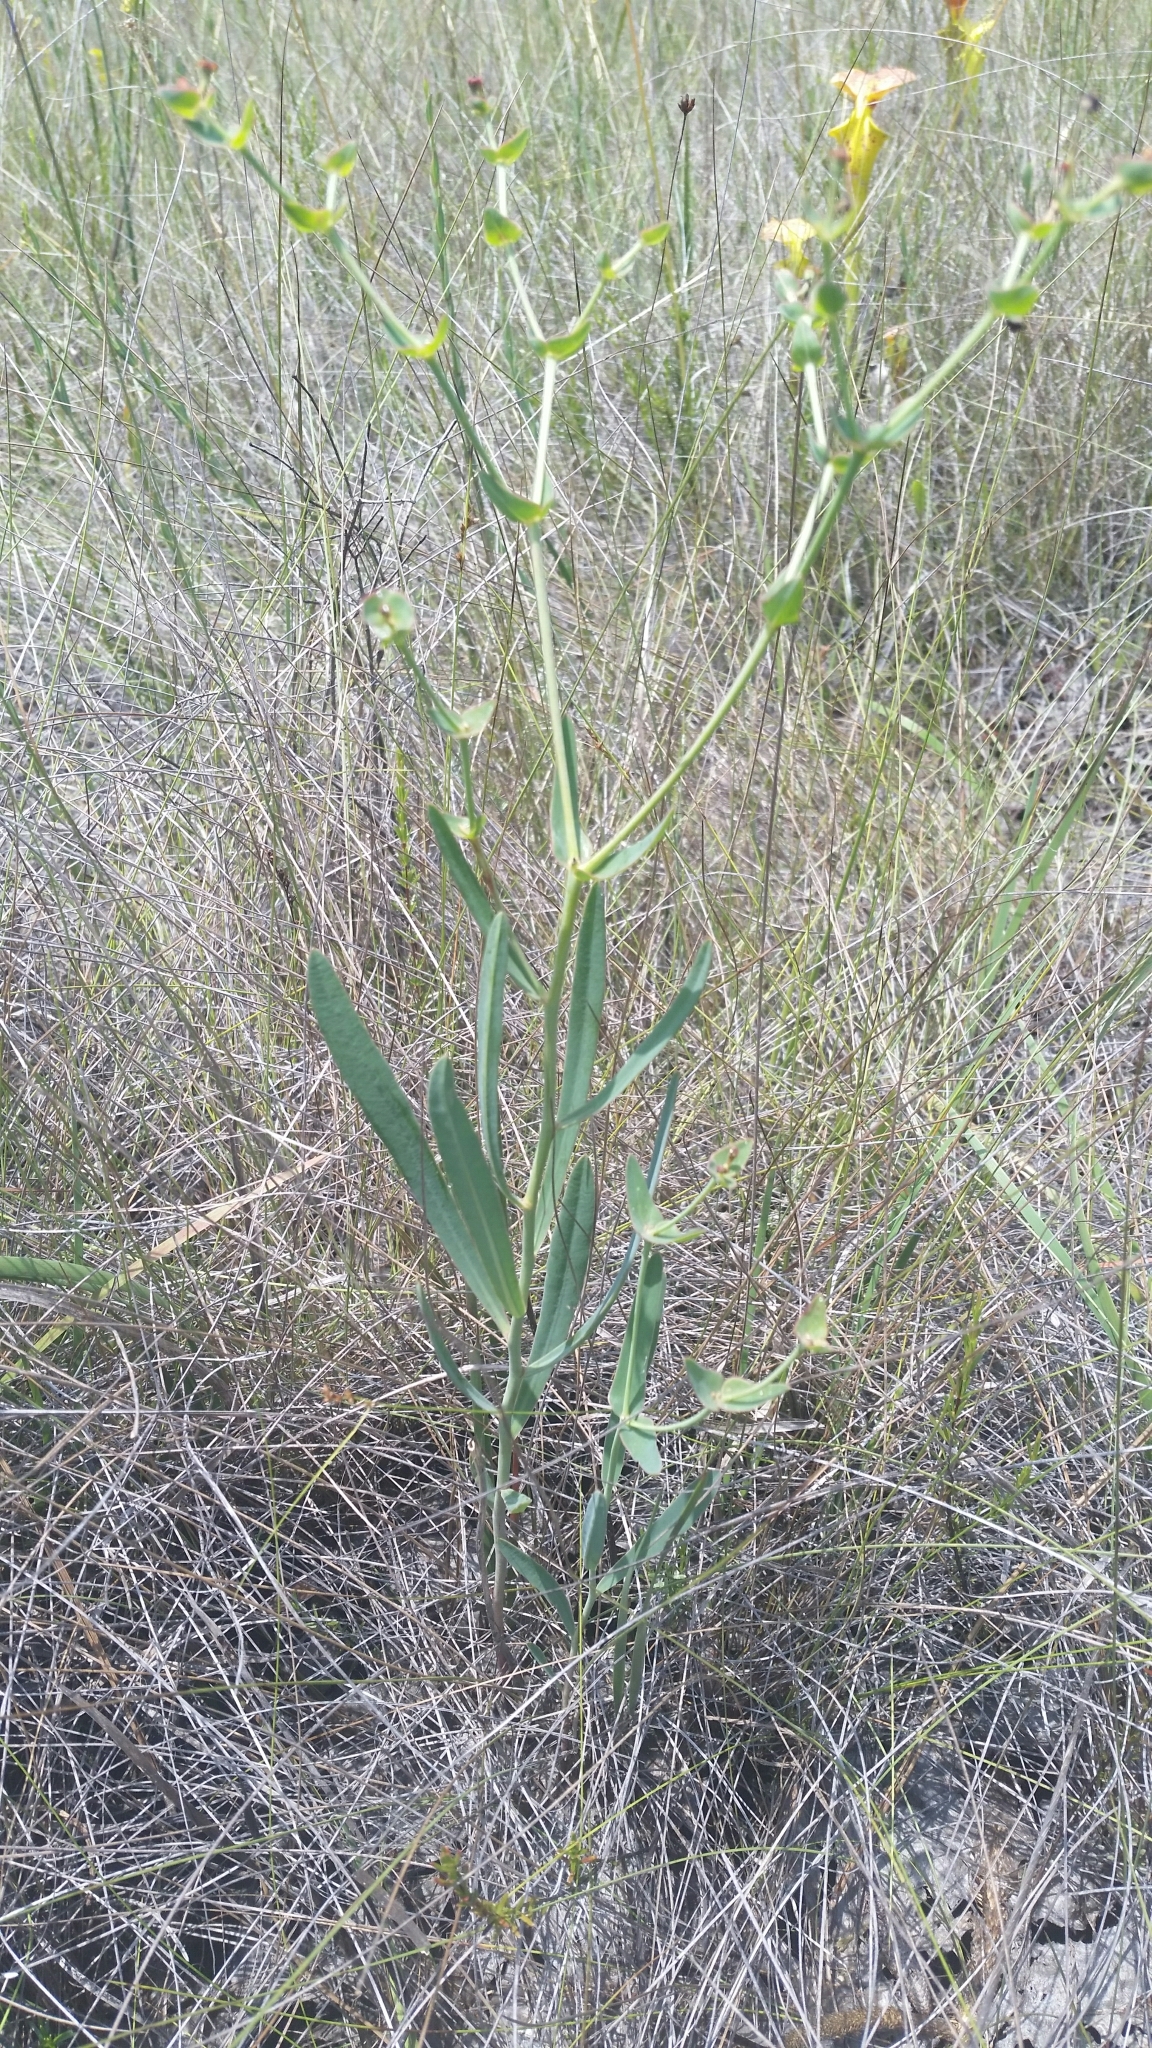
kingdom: Plantae
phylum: Tracheophyta
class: Magnoliopsida
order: Malpighiales
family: Euphorbiaceae
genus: Euphorbia
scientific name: Euphorbia inundata
